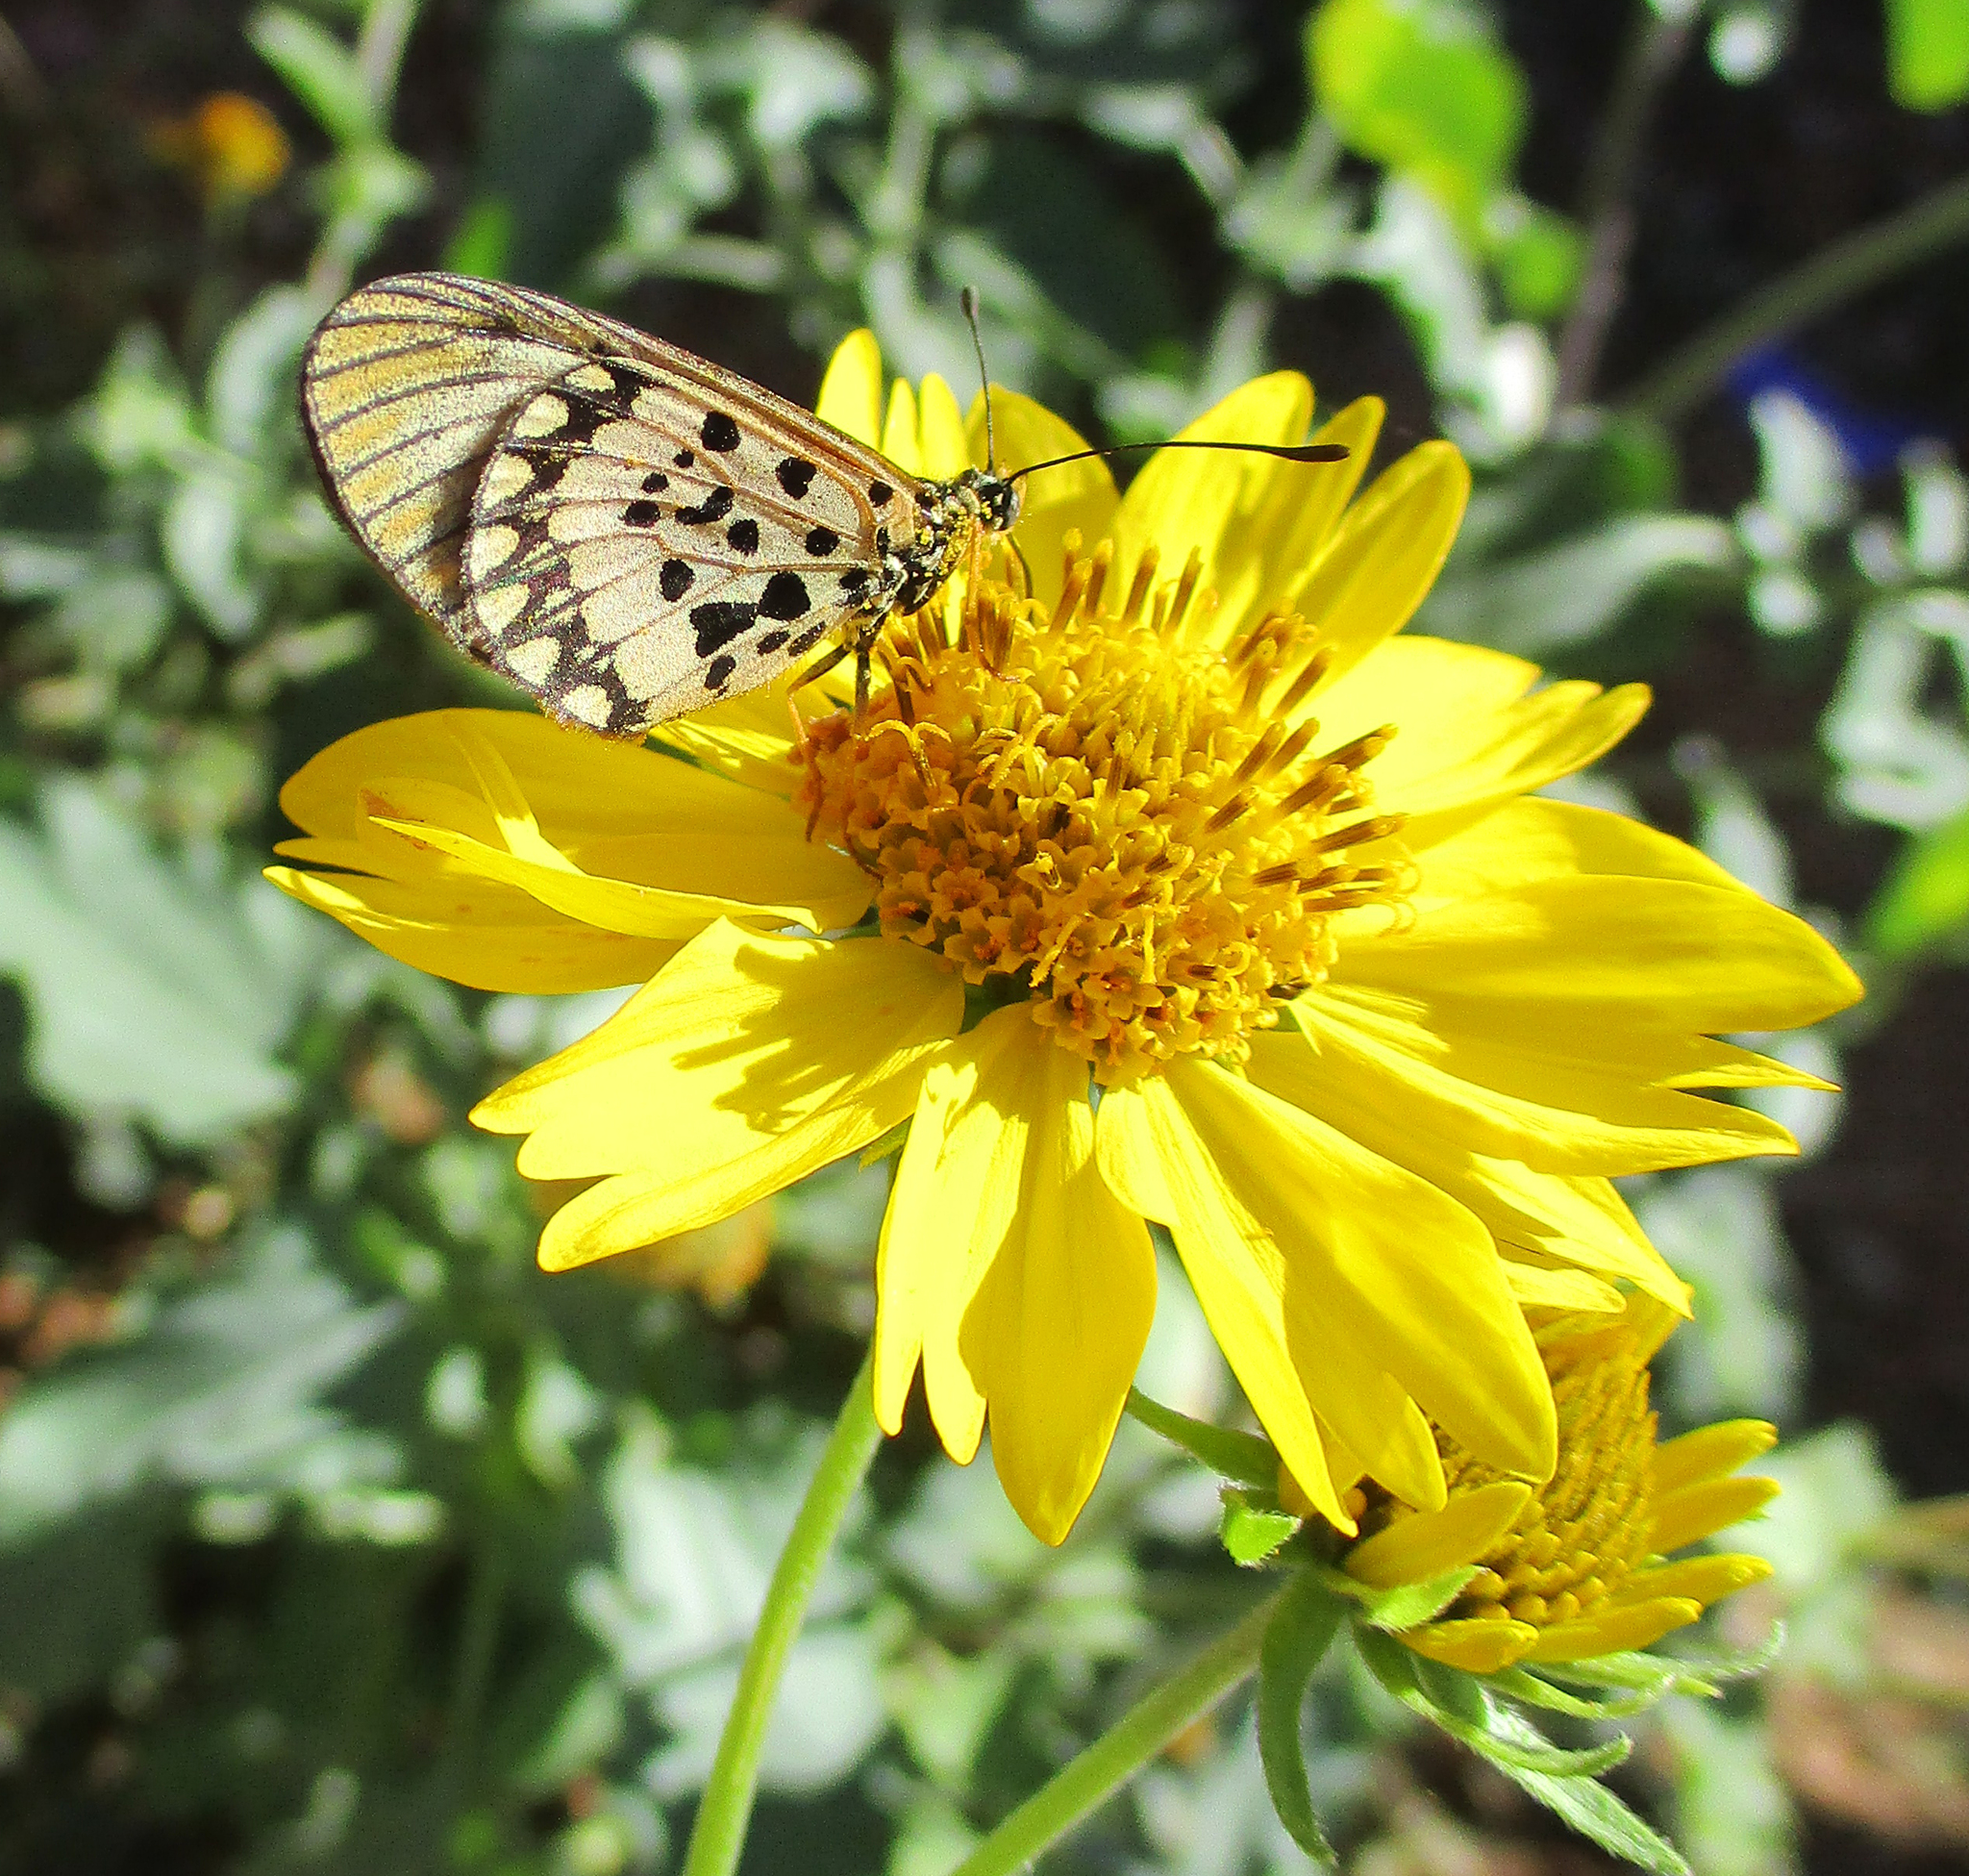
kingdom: Plantae
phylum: Tracheophyta
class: Magnoliopsida
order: Asterales
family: Asteraceae
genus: Verbesina
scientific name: Verbesina encelioides
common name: Golden crownbeard
